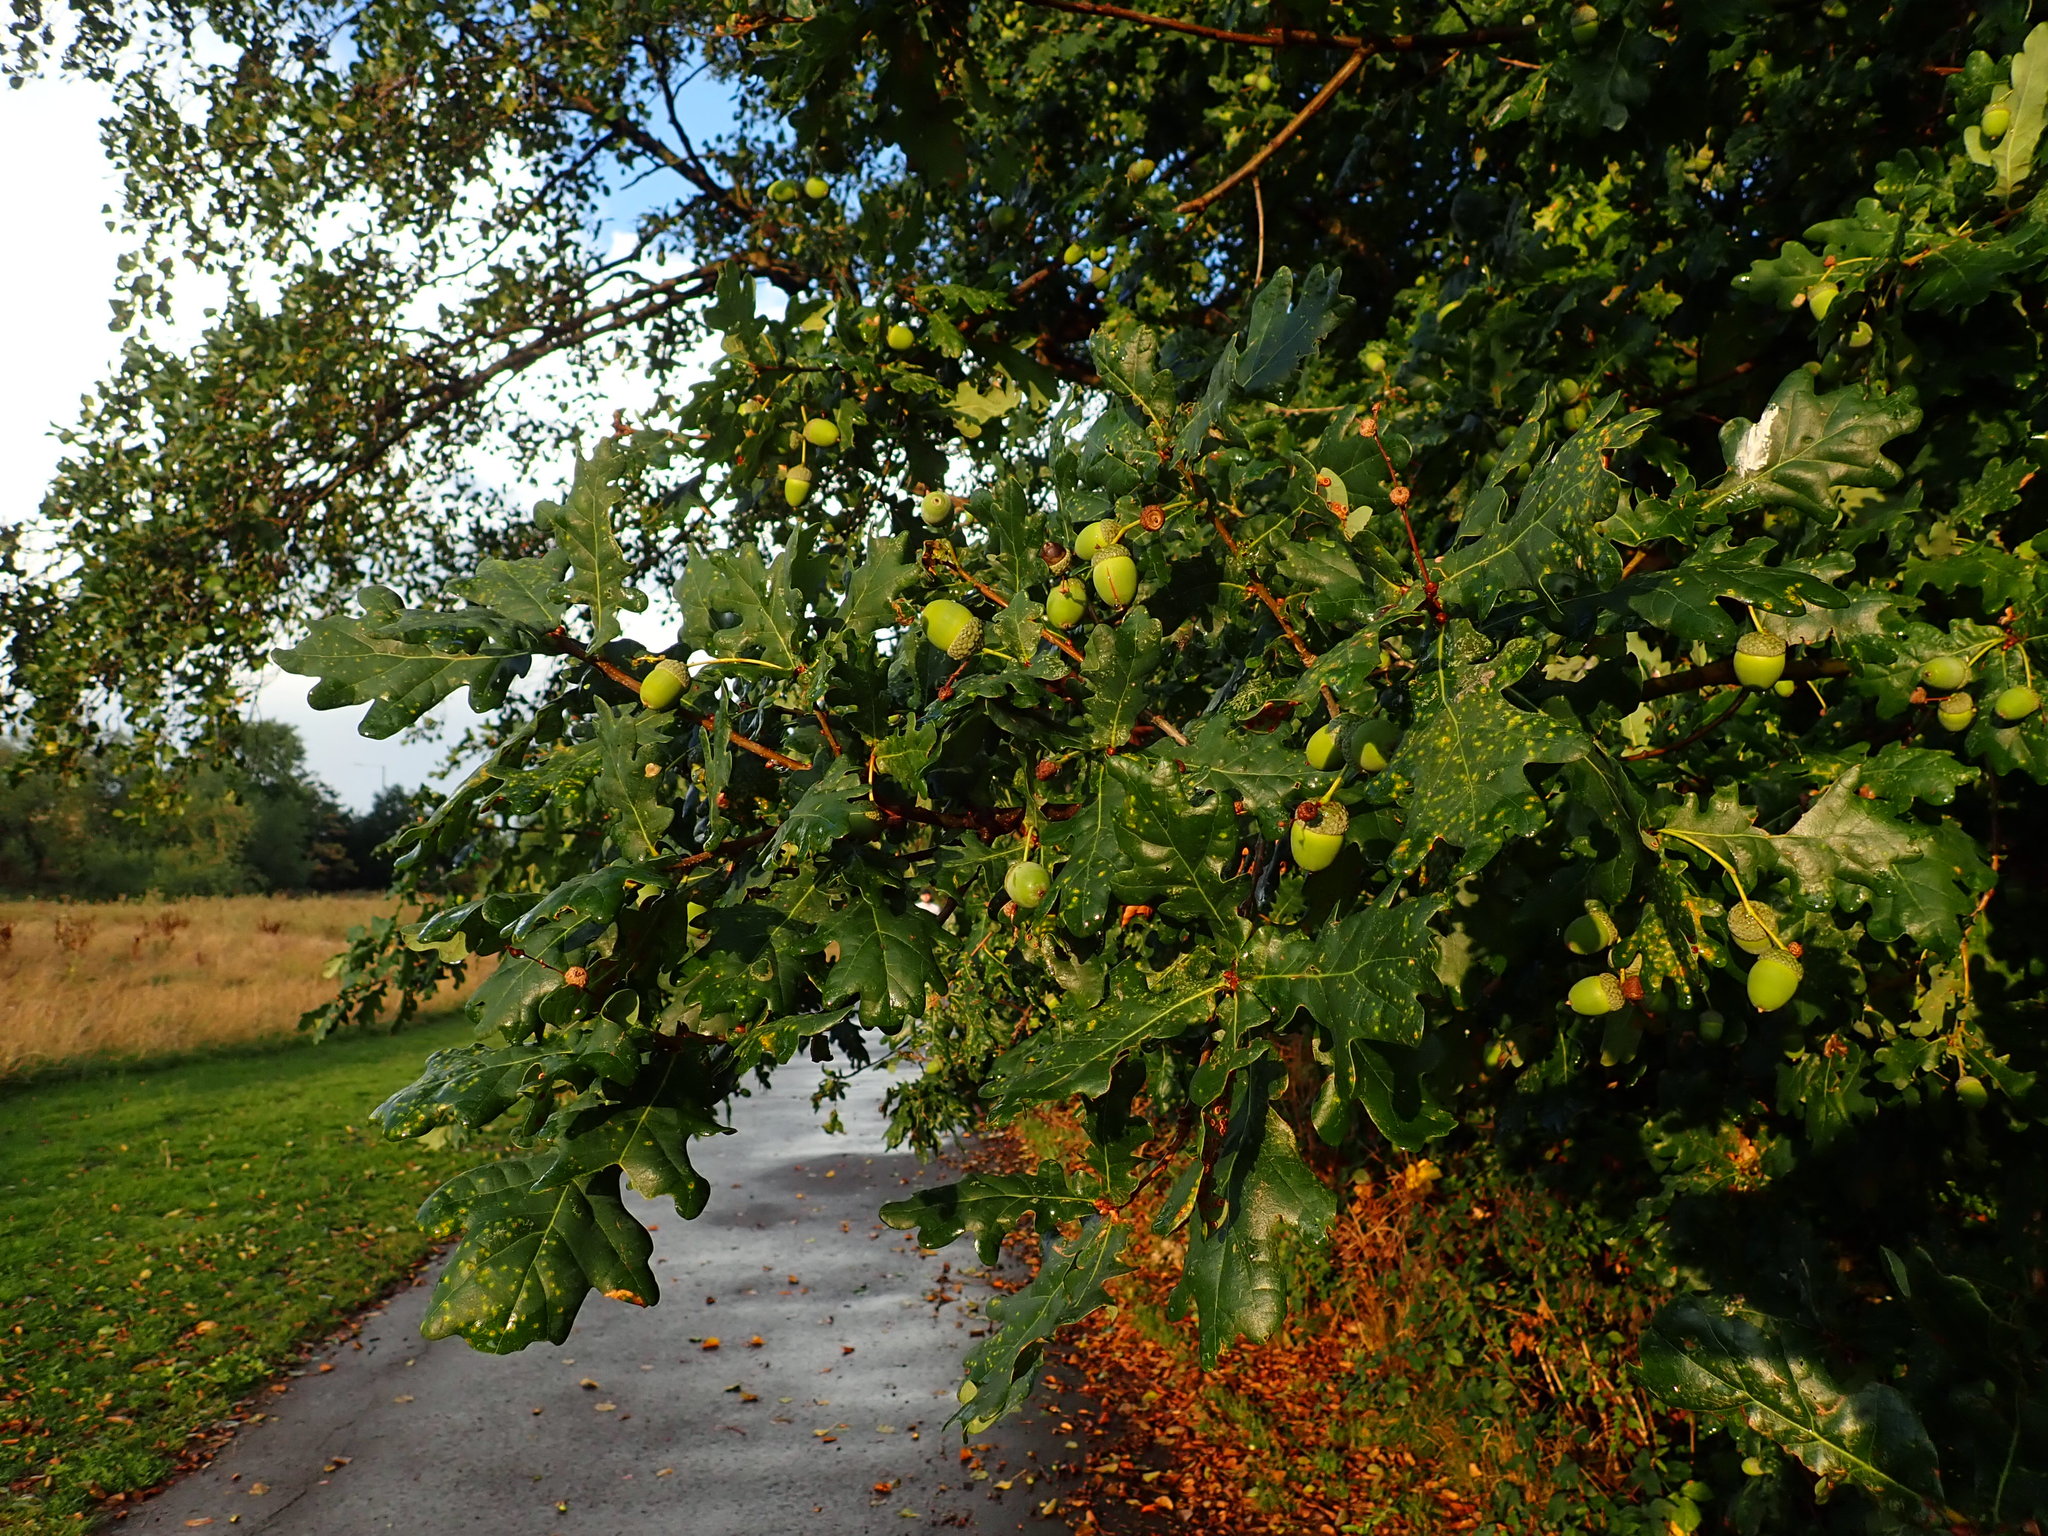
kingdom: Plantae
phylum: Tracheophyta
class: Magnoliopsida
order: Fagales
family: Fagaceae
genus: Quercus
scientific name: Quercus robur
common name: Pedunculate oak
